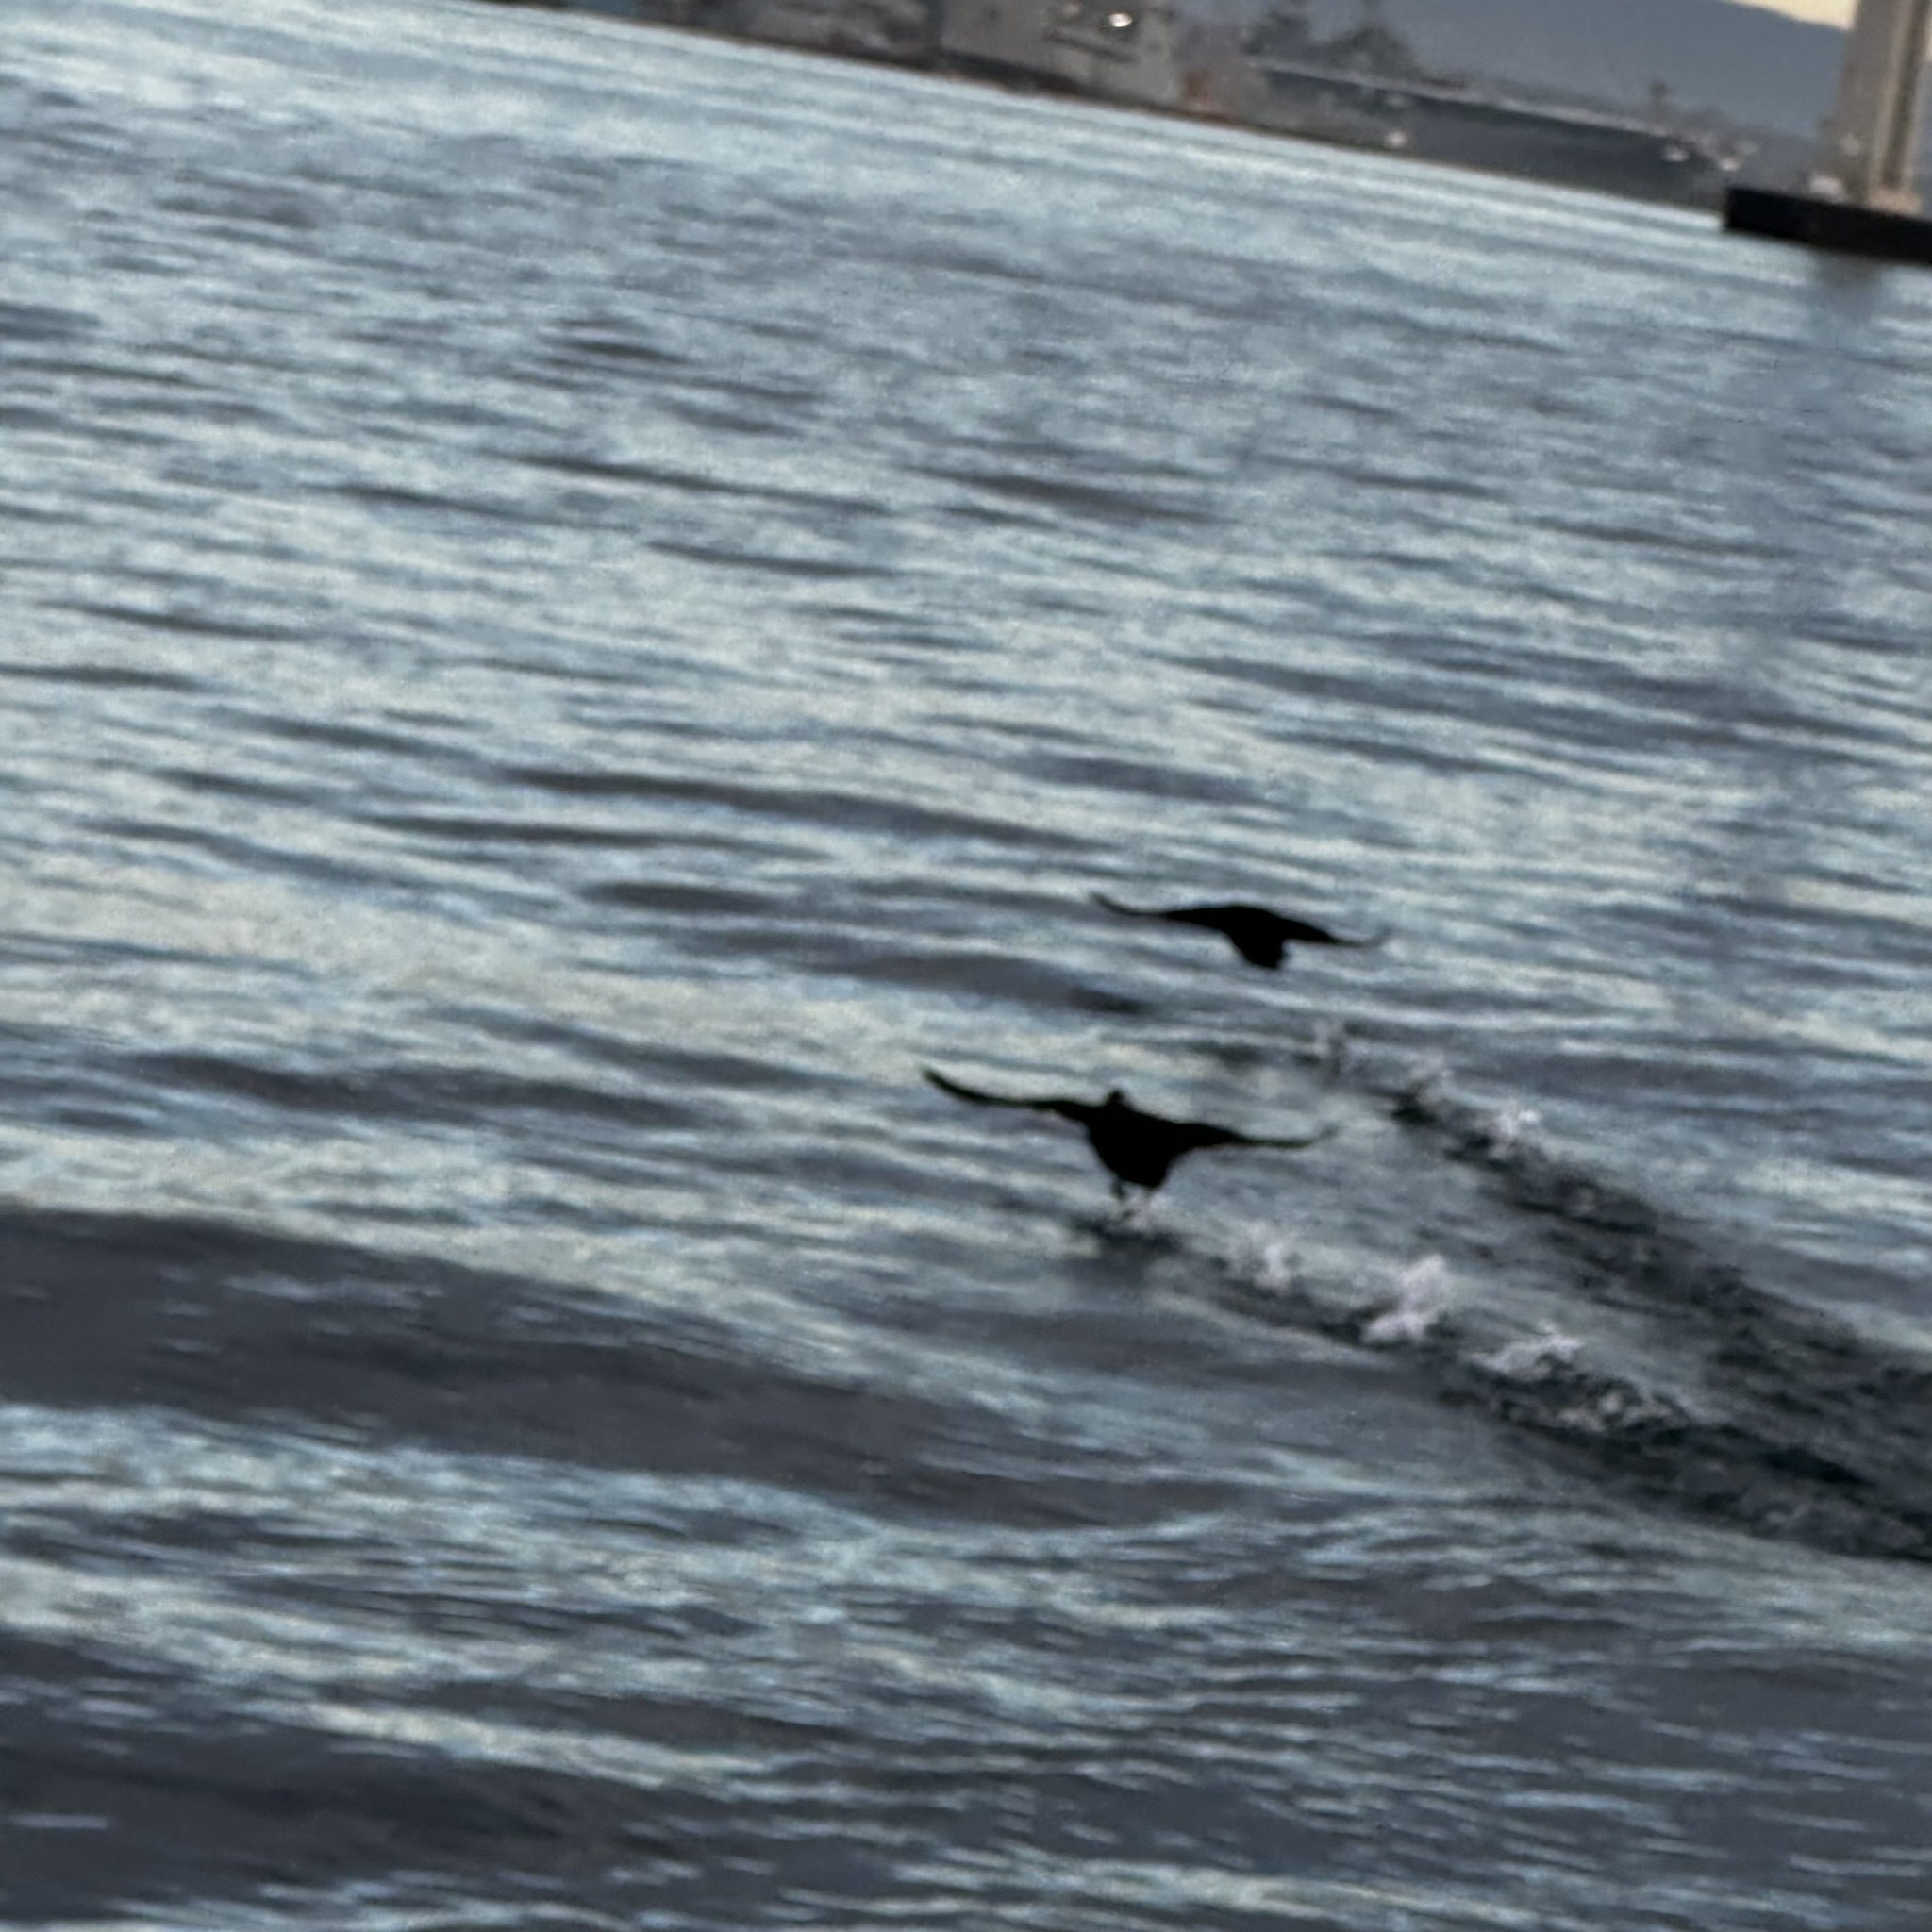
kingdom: Animalia
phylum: Chordata
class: Aves
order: Anseriformes
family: Anatidae
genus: Melanitta
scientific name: Melanitta perspicillata
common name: Surf scoter
